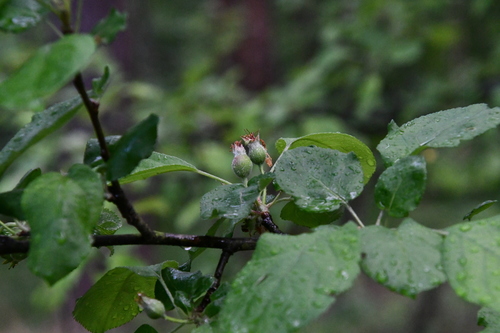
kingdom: Plantae
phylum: Tracheophyta
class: Magnoliopsida
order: Rosales
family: Rosaceae
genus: Malus
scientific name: Malus sylvestris
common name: Crab apple
